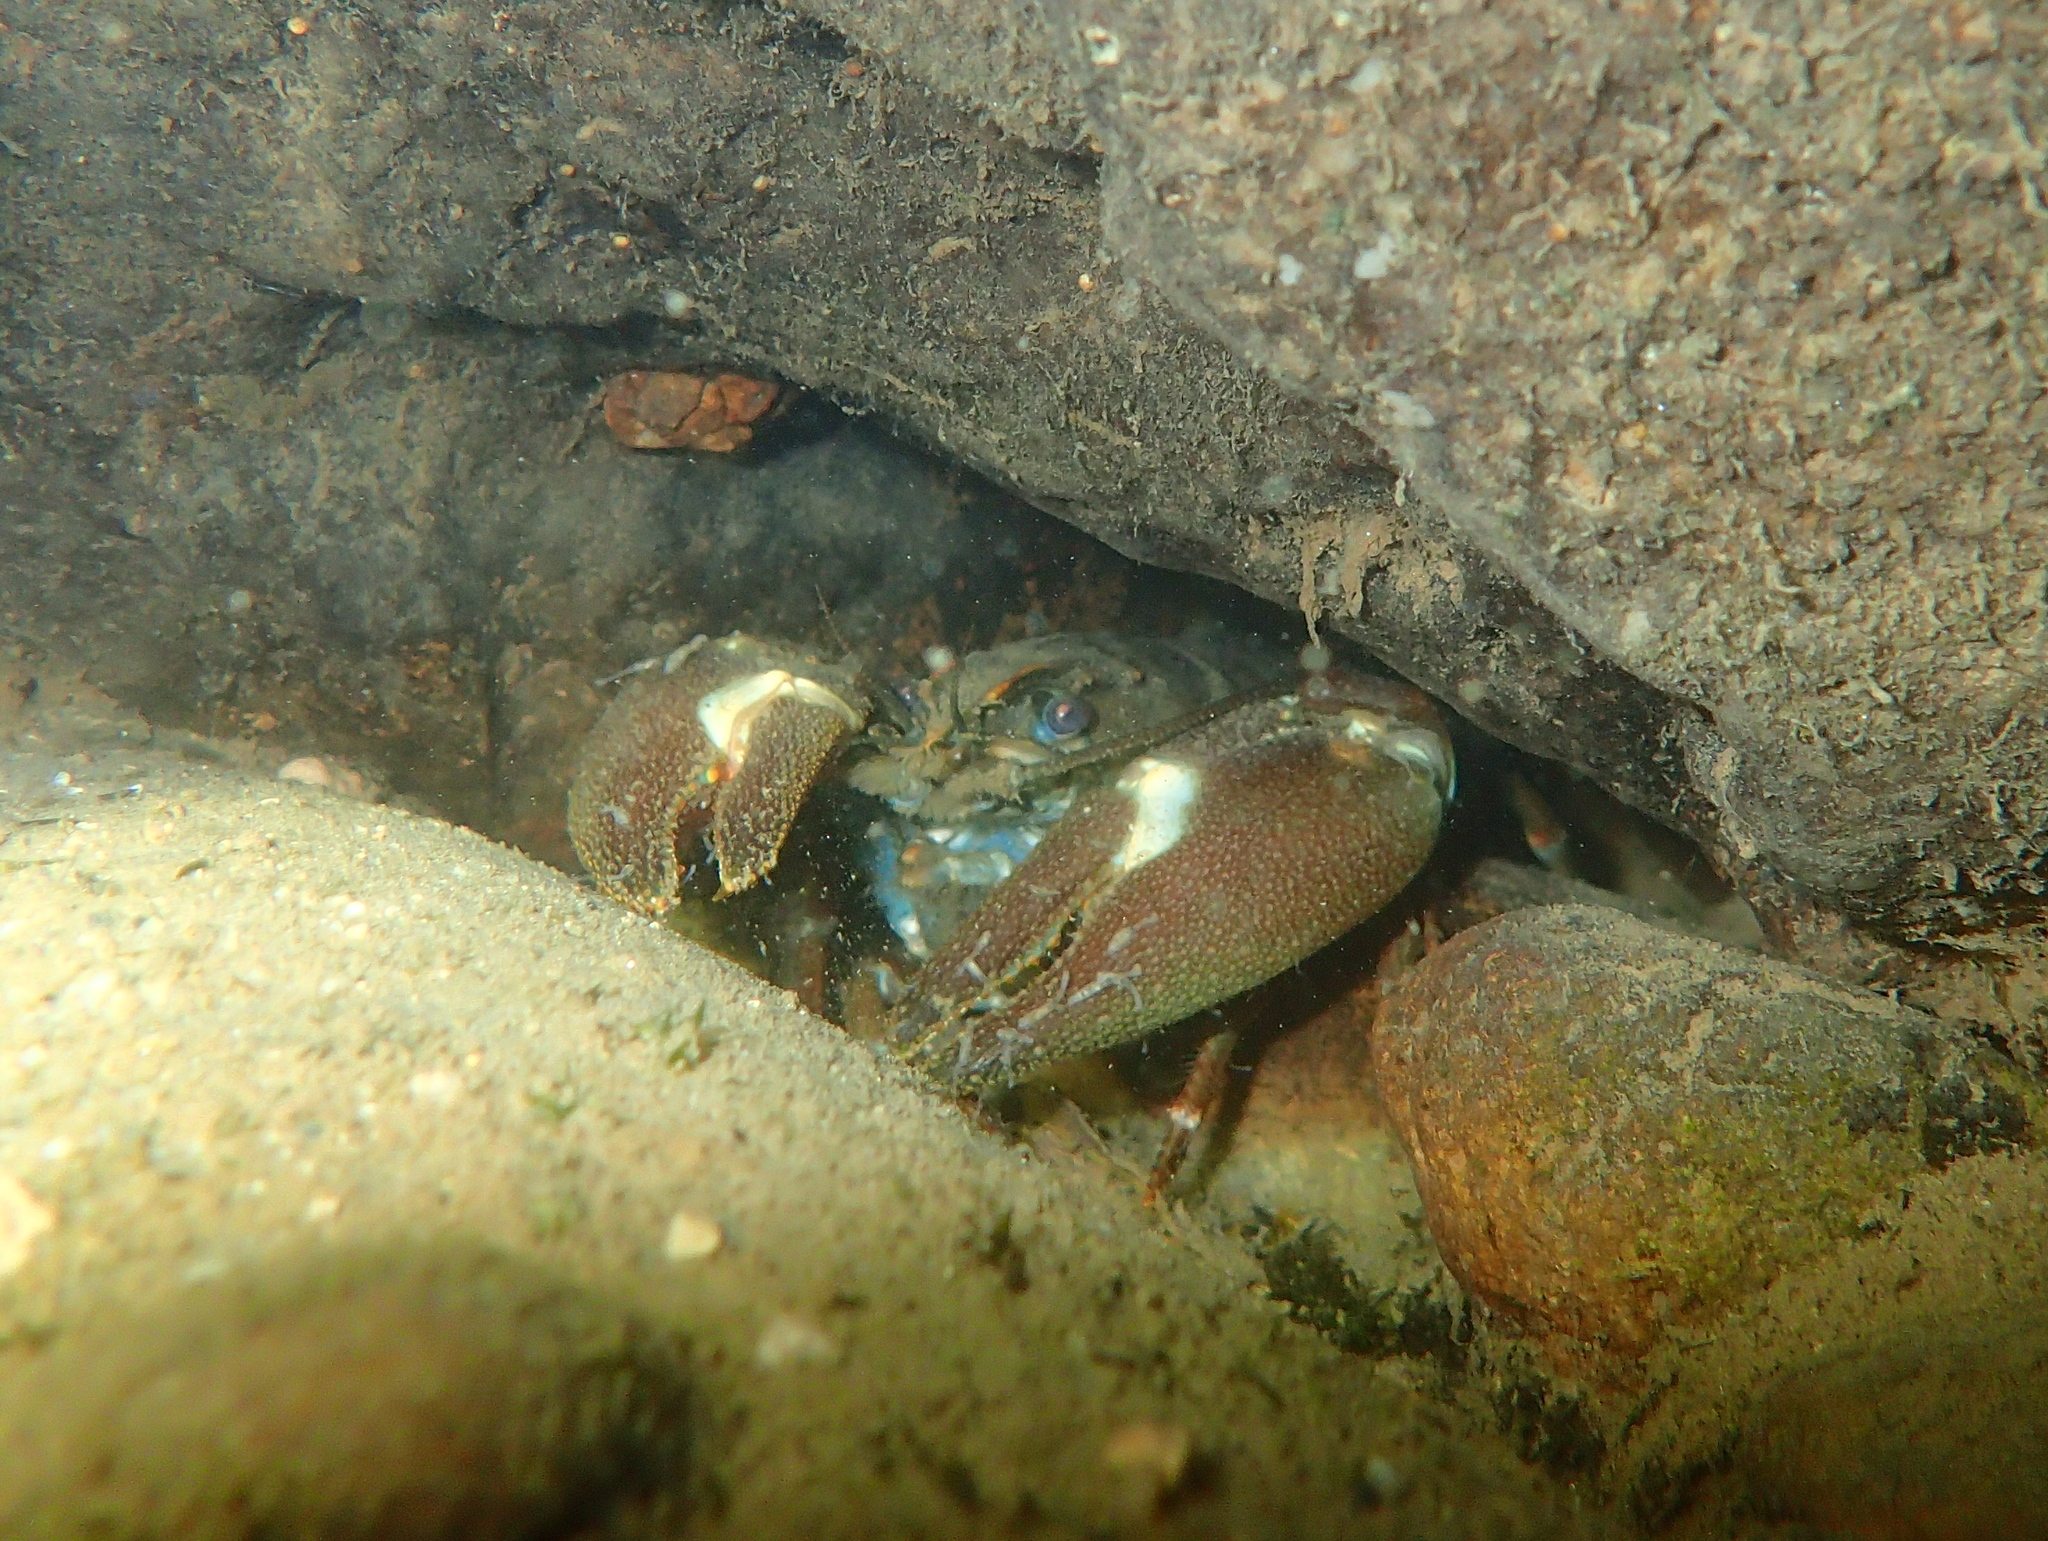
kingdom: Animalia
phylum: Arthropoda
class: Malacostraca
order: Decapoda
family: Astacidae
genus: Pacifastacus
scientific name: Pacifastacus leniusculus
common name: Signal crayfish
